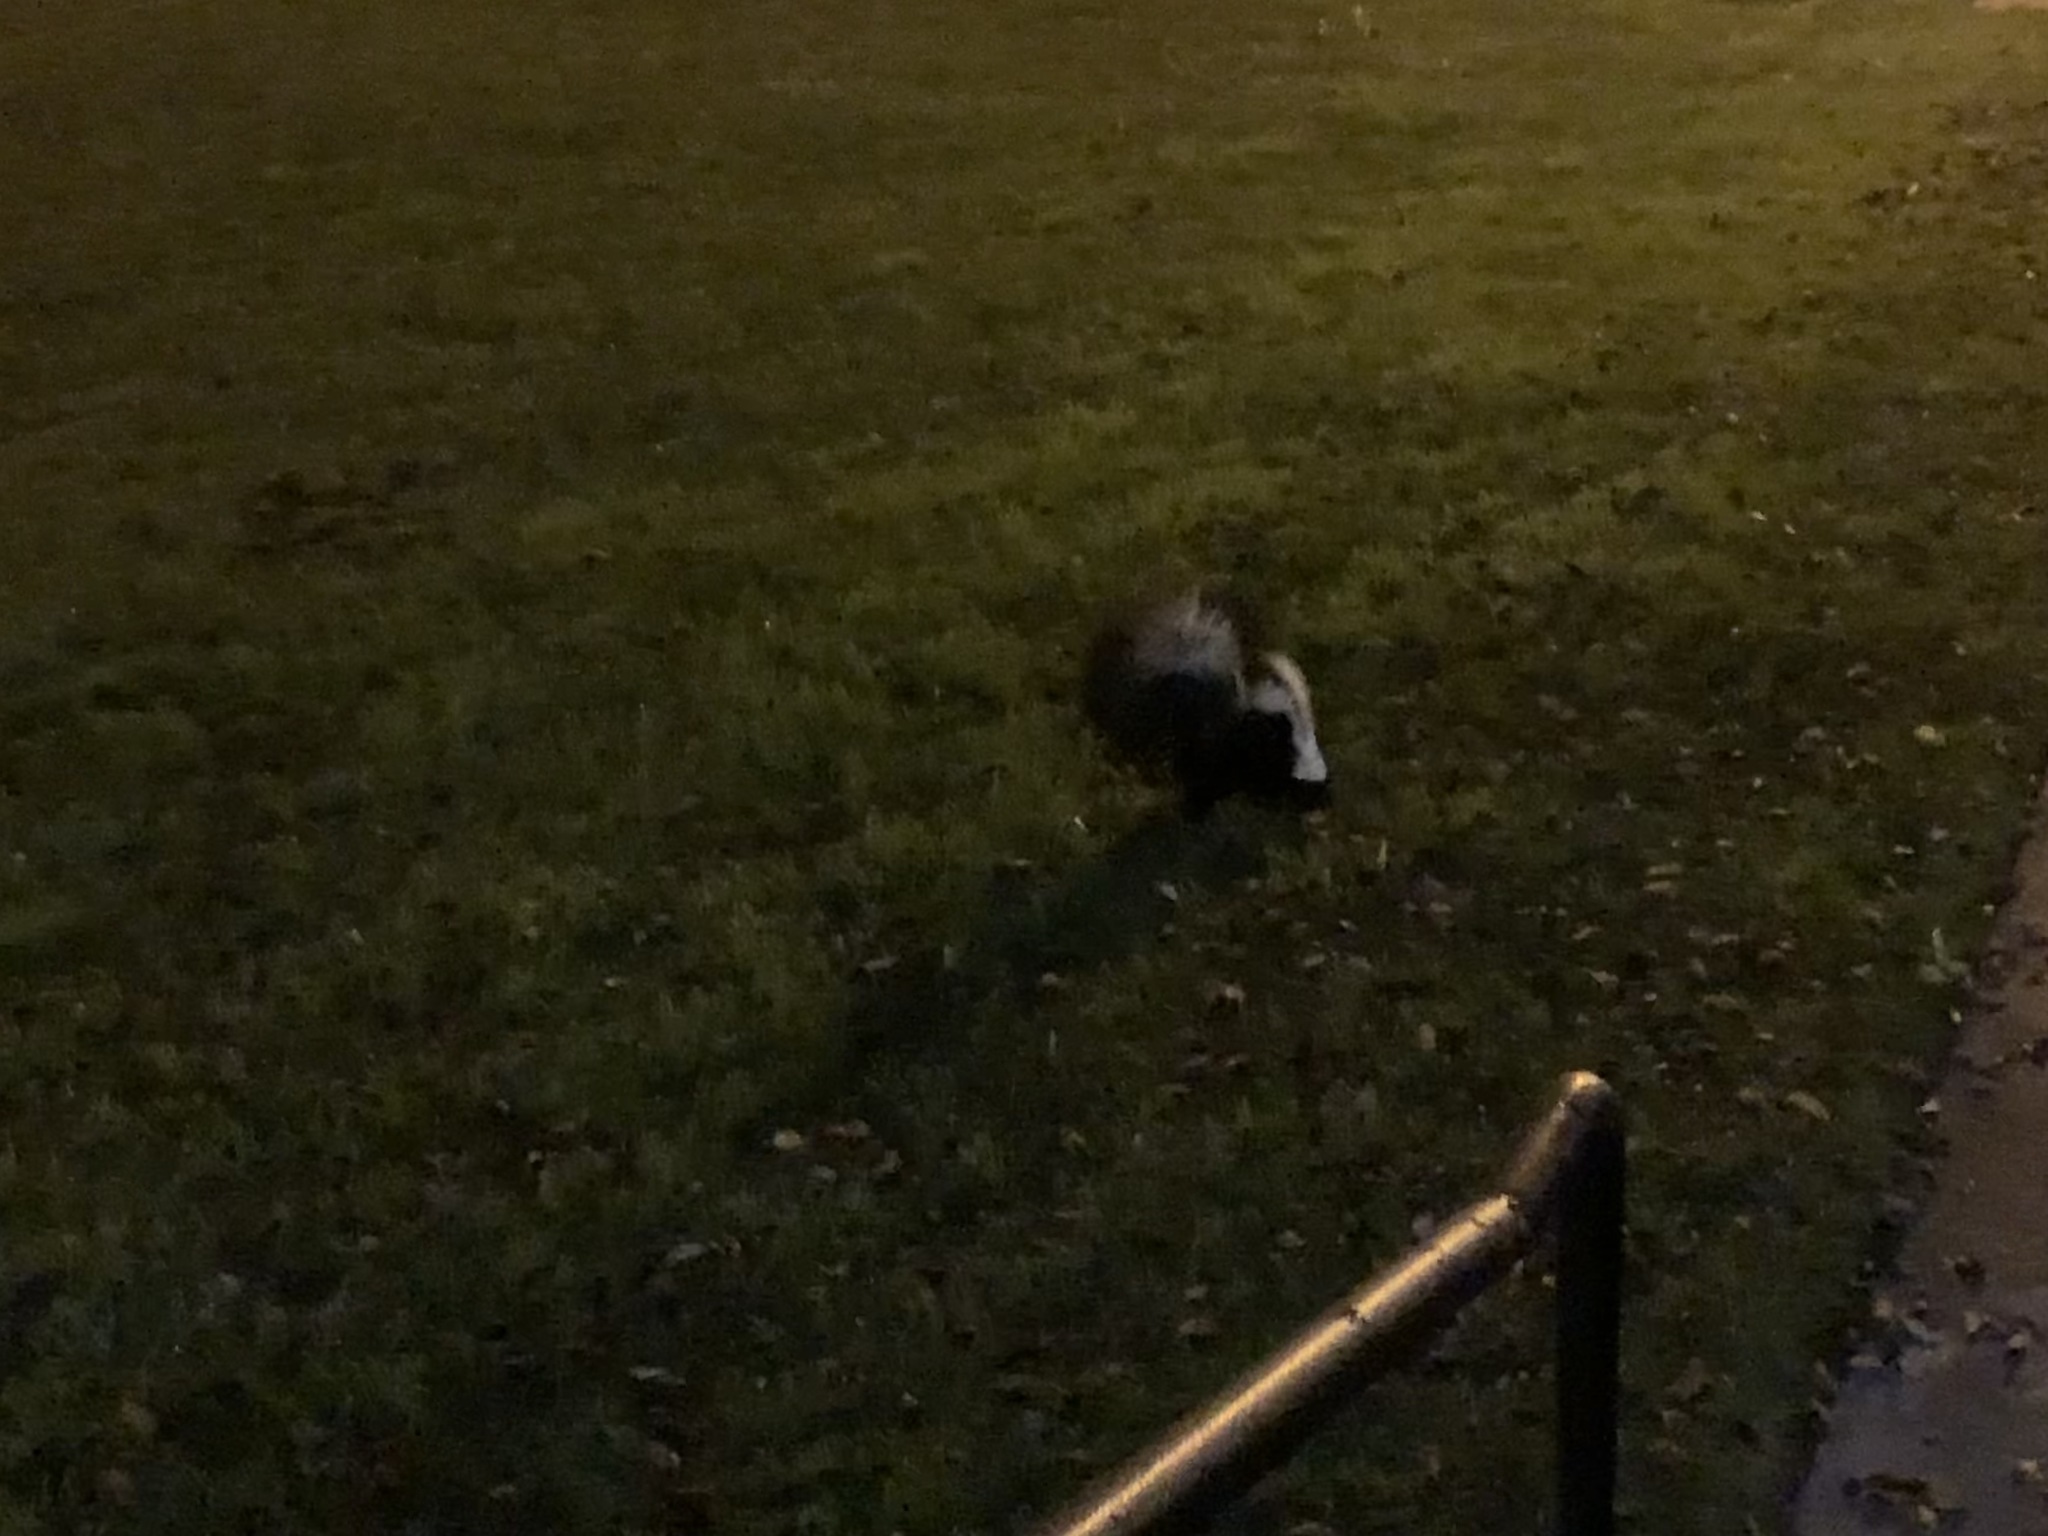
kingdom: Animalia
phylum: Chordata
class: Mammalia
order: Carnivora
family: Mephitidae
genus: Mephitis
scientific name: Mephitis mephitis
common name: Striped skunk
